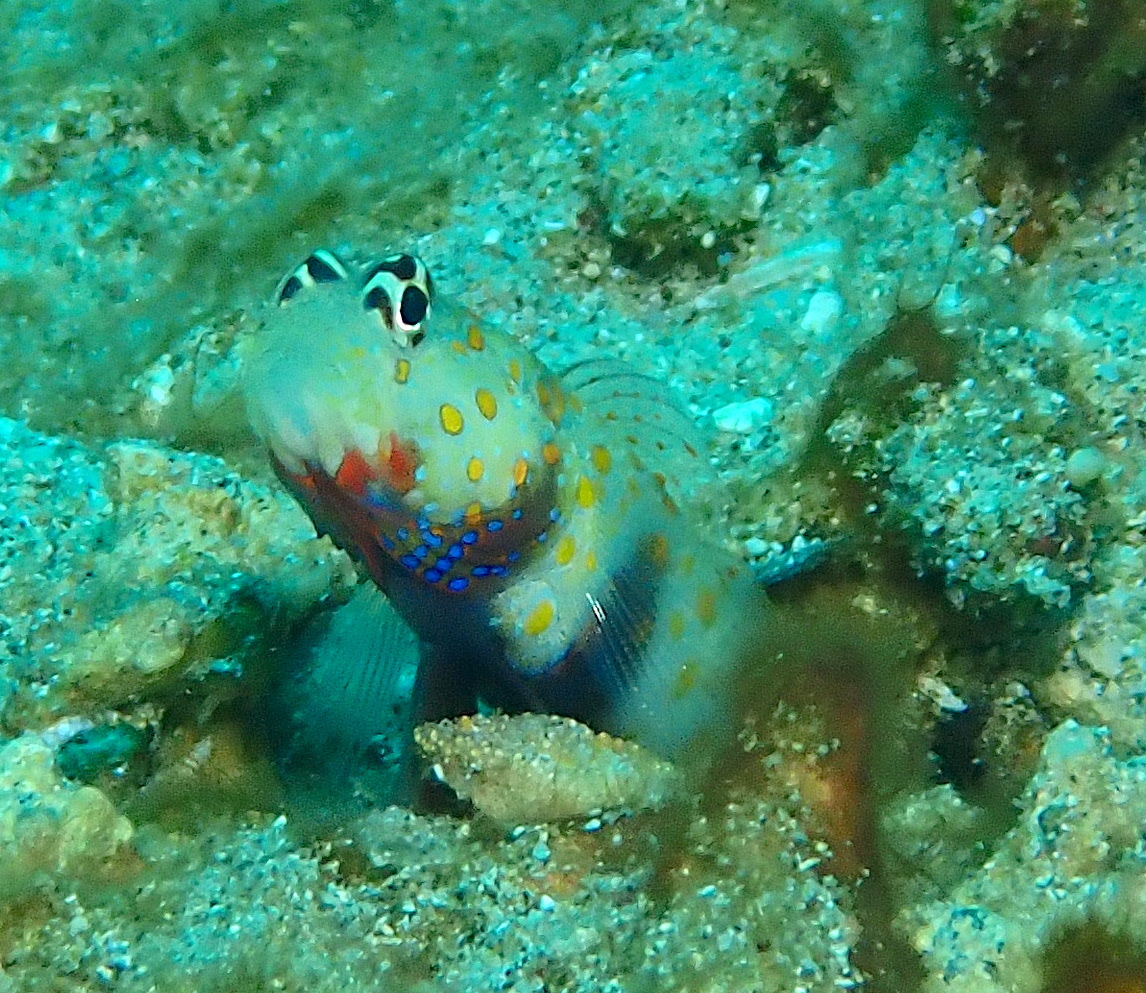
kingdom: Animalia
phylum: Chordata
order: Perciformes
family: Gobiidae
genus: Amblyeleotris
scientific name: Amblyeleotris guttata
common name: Black-chest shrimp-goby
